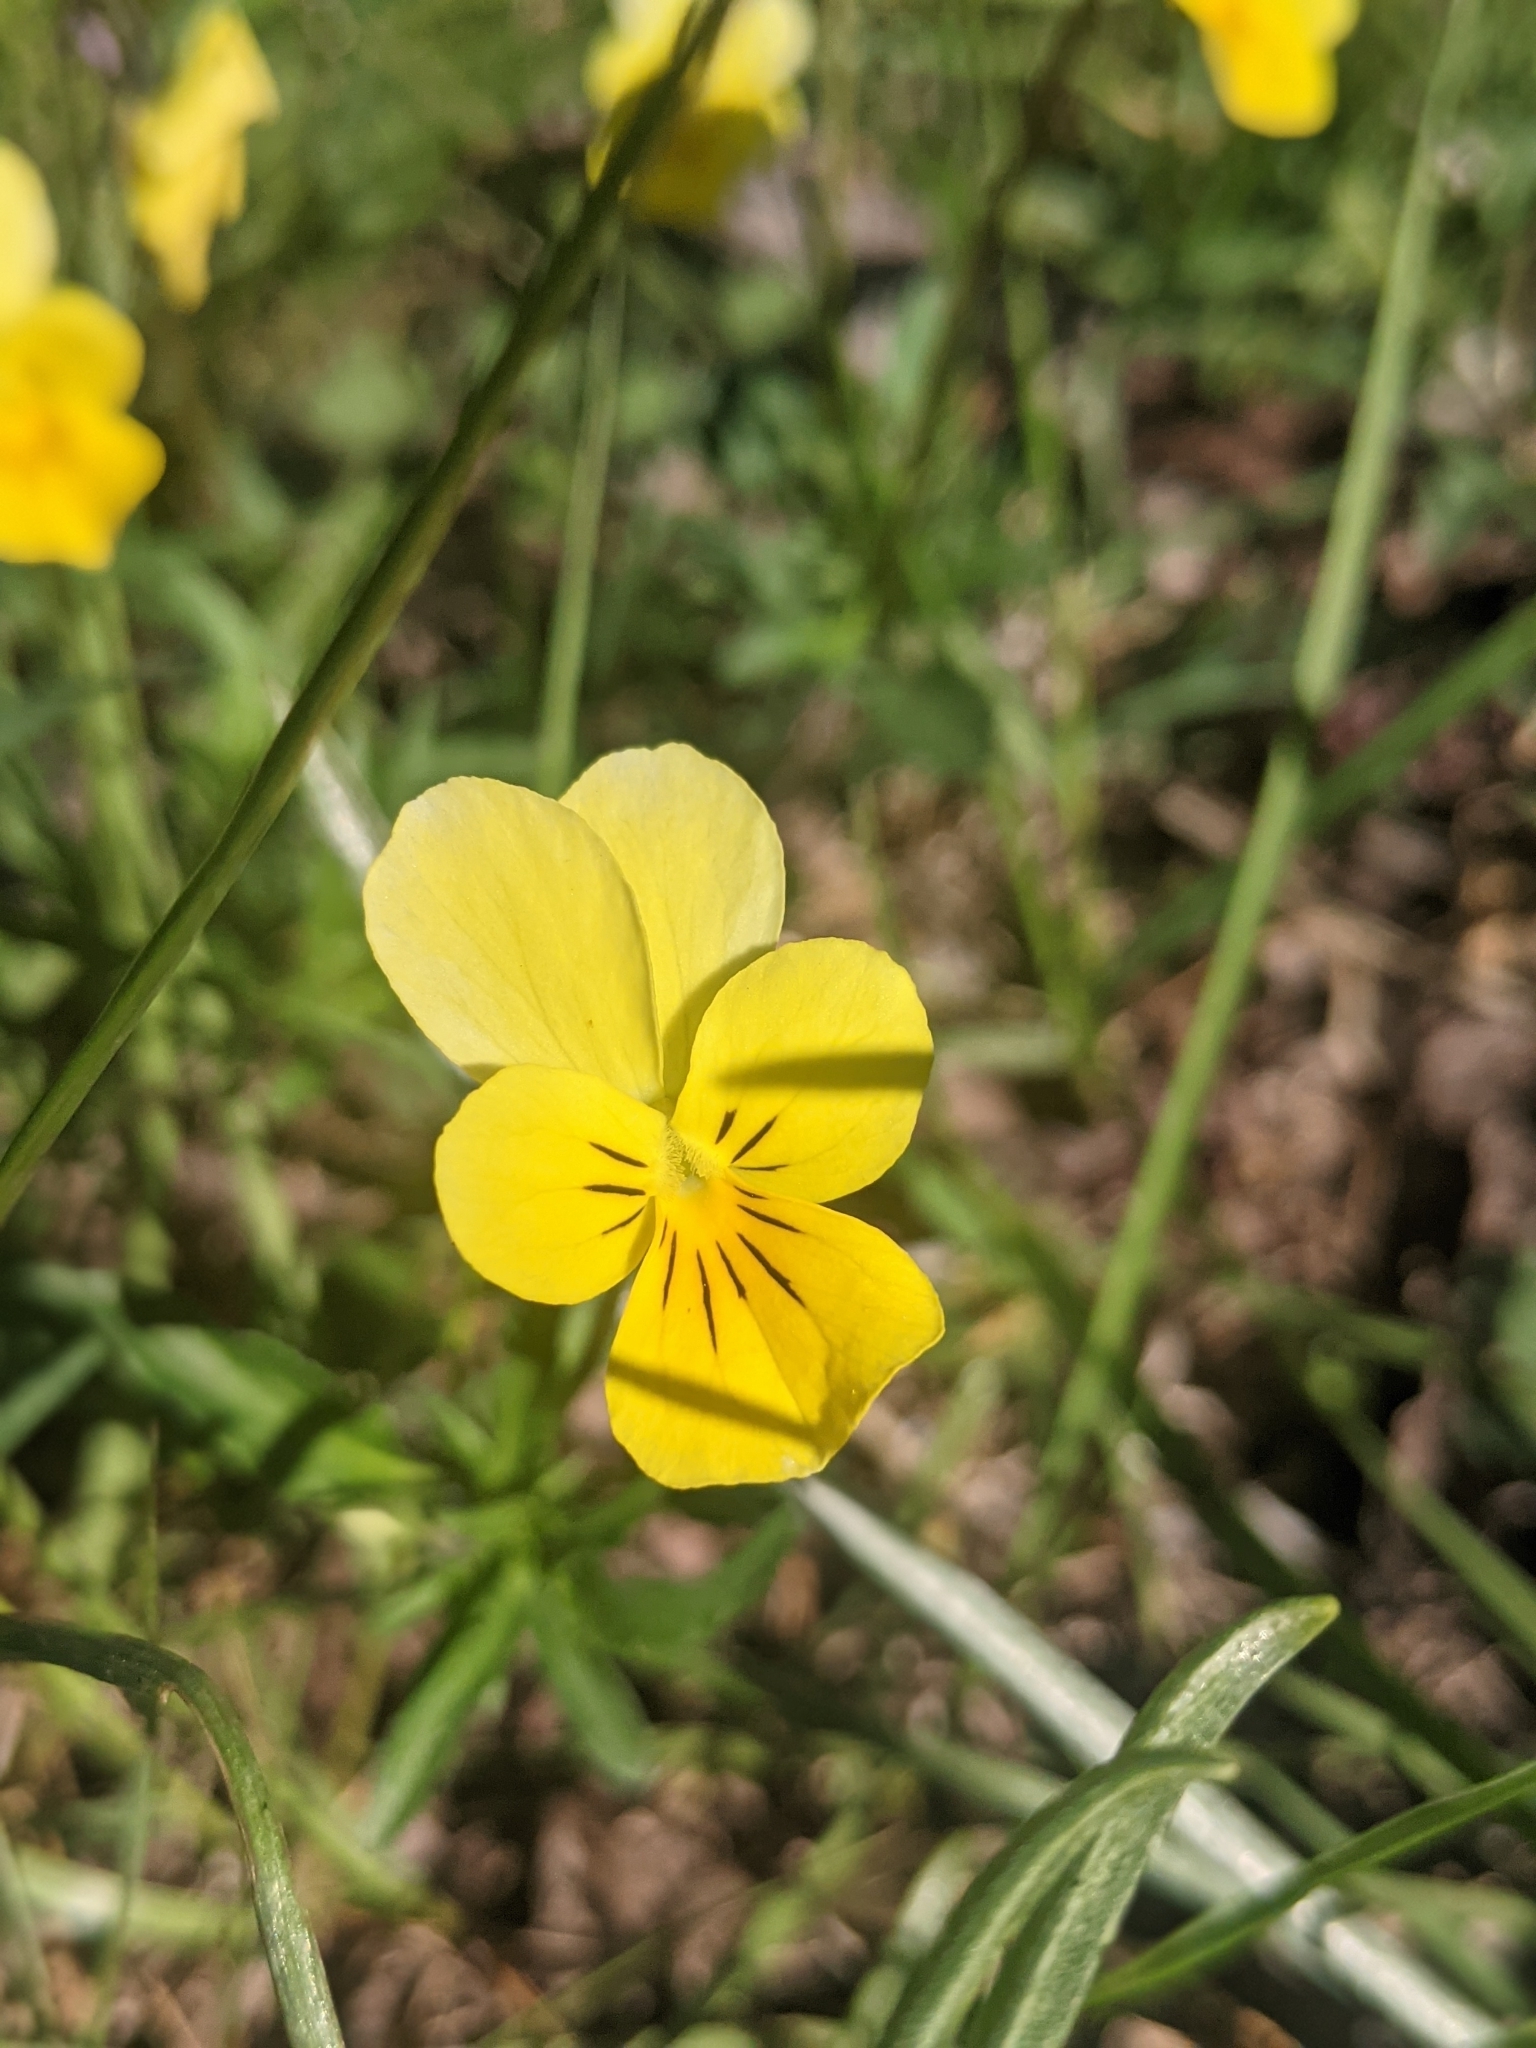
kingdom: Plantae
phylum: Tracheophyta
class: Magnoliopsida
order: Malpighiales
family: Violaceae
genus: Viola
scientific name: Viola tricolor
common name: Pansy
